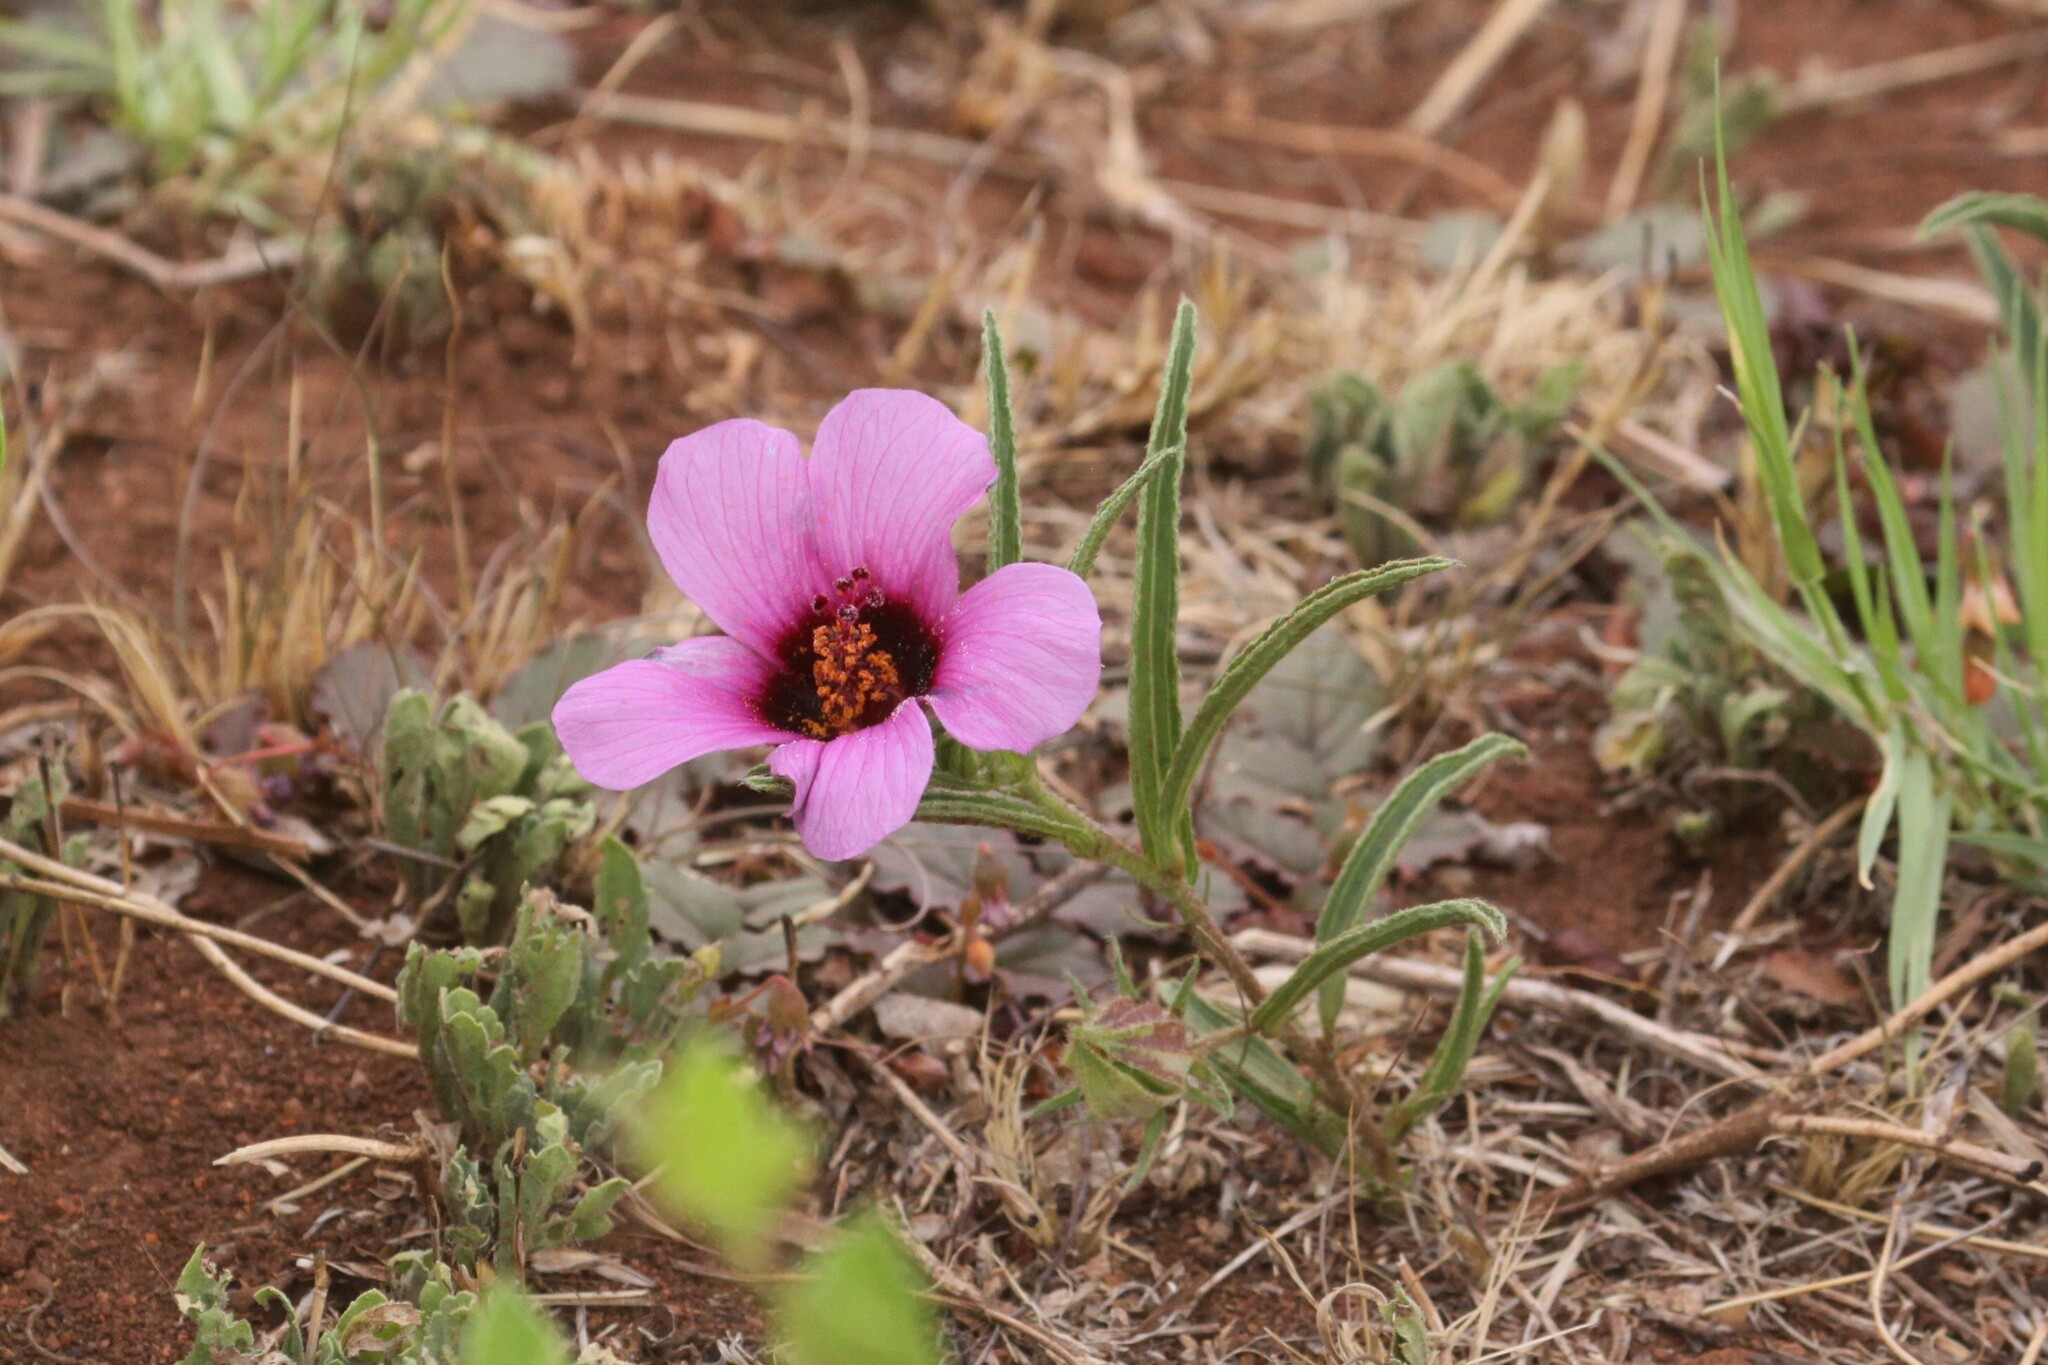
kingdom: Plantae
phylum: Tracheophyta
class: Magnoliopsida
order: Malvales
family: Malvaceae
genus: Hibiscus
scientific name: Hibiscus malacospermus
